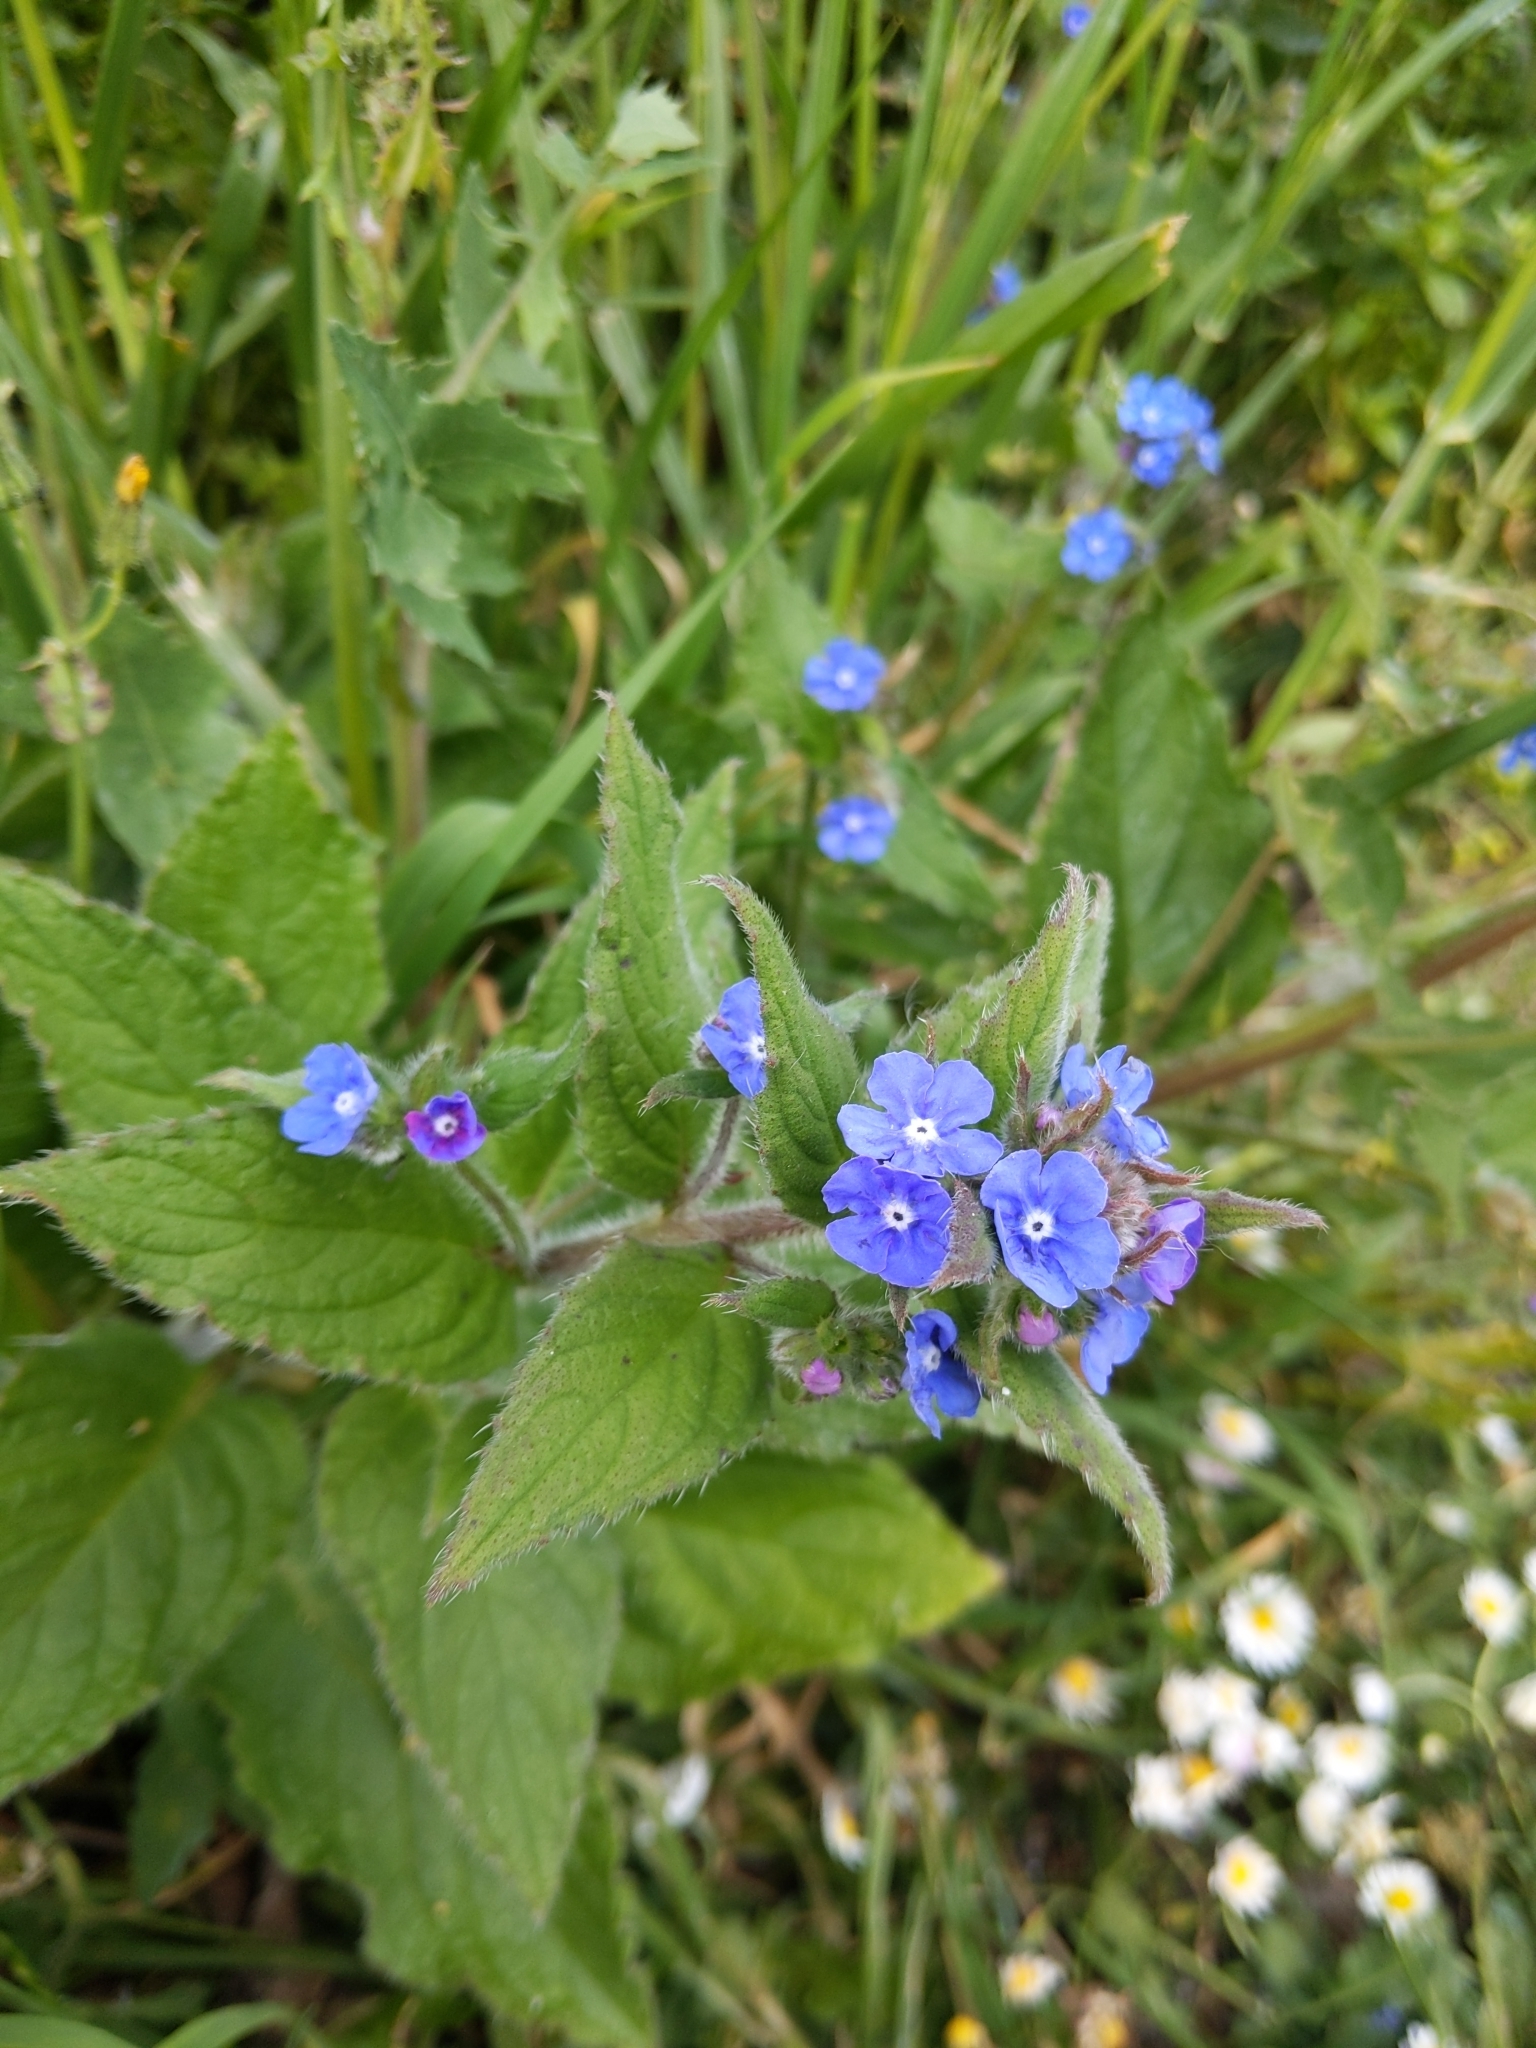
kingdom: Plantae
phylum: Tracheophyta
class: Magnoliopsida
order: Boraginales
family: Boraginaceae
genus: Pentaglottis
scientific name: Pentaglottis sempervirens
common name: Green alkanet
